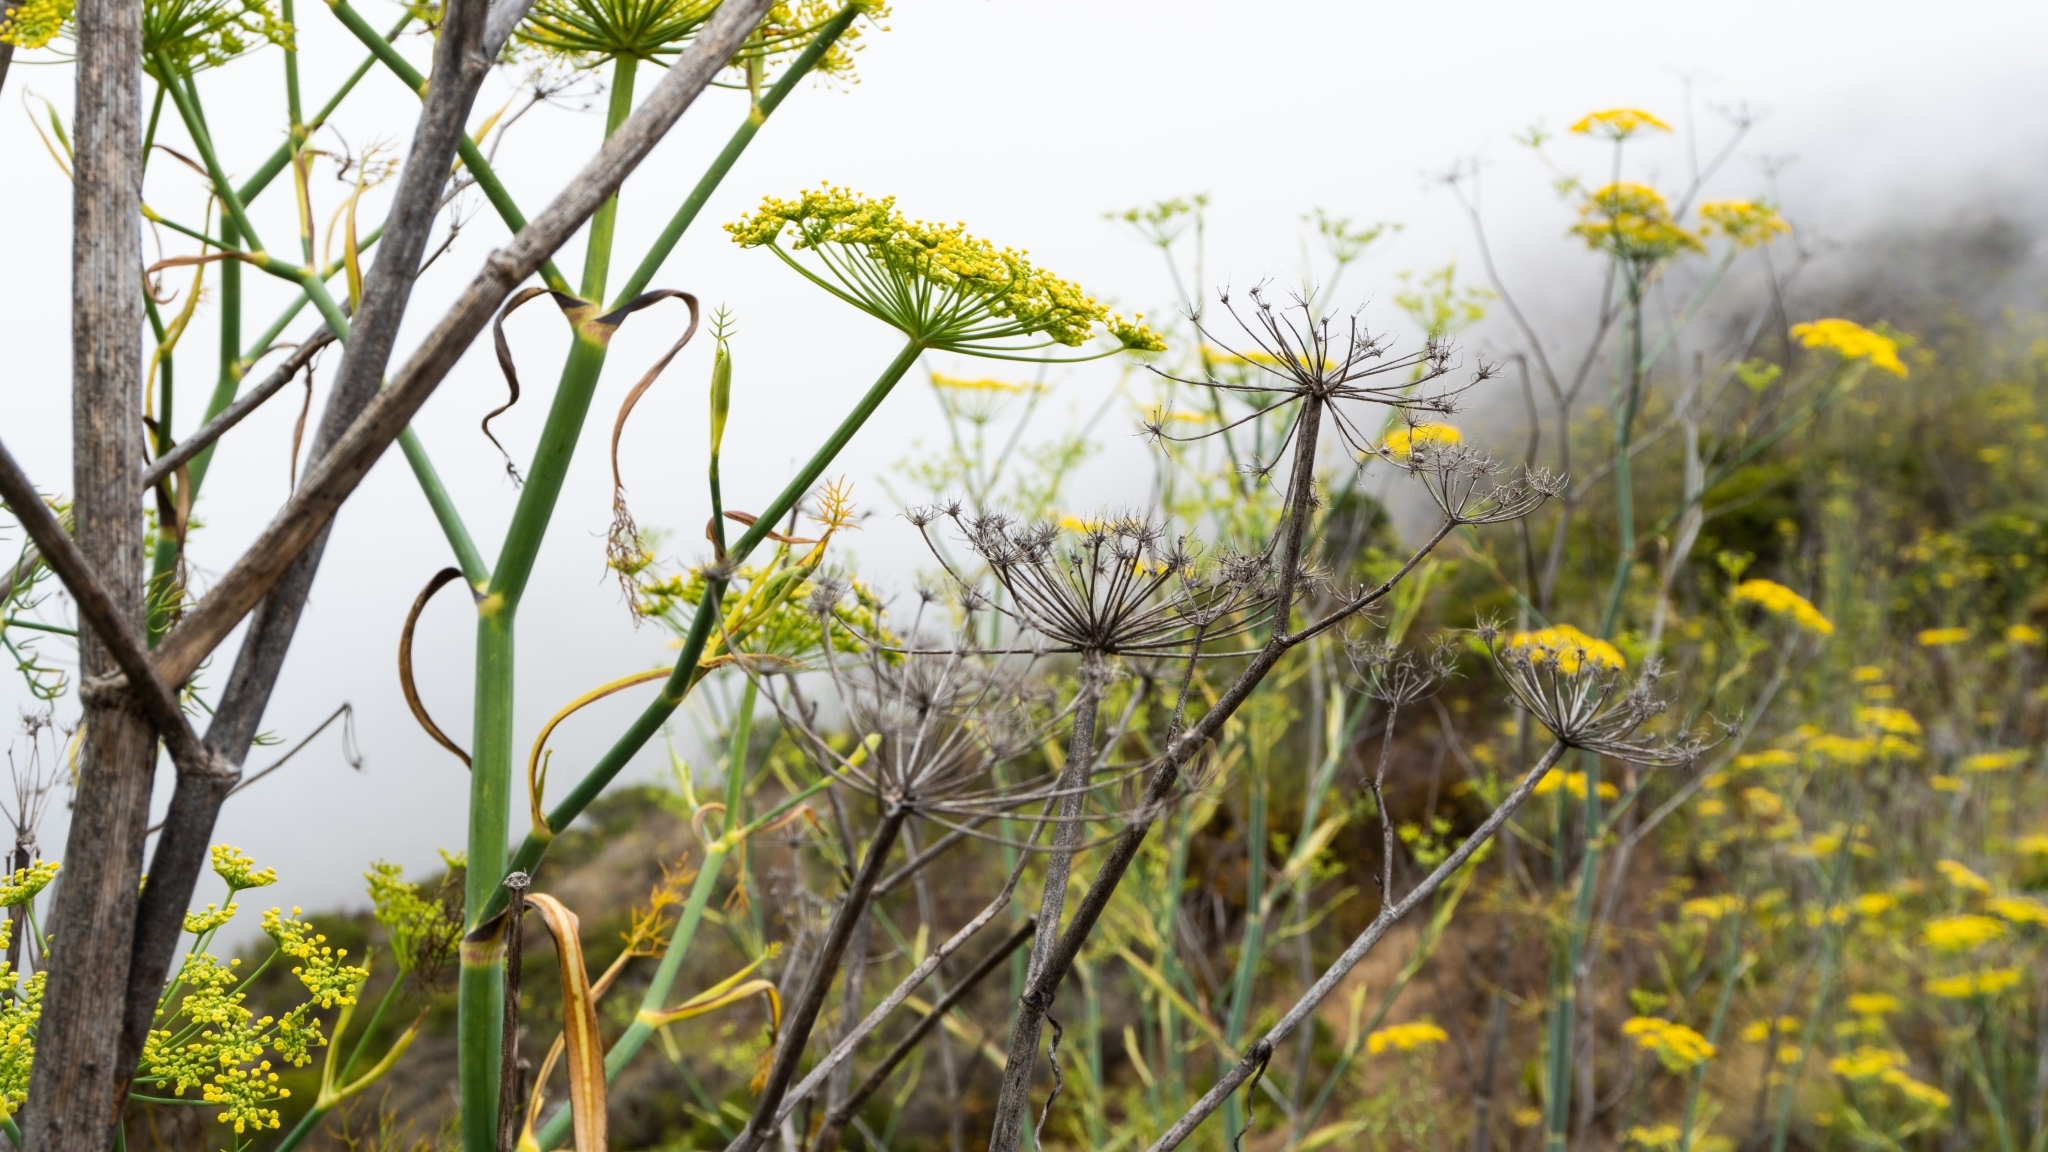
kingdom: Plantae
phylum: Tracheophyta
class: Magnoliopsida
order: Apiales
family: Apiaceae
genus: Foeniculum
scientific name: Foeniculum vulgare
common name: Fennel
